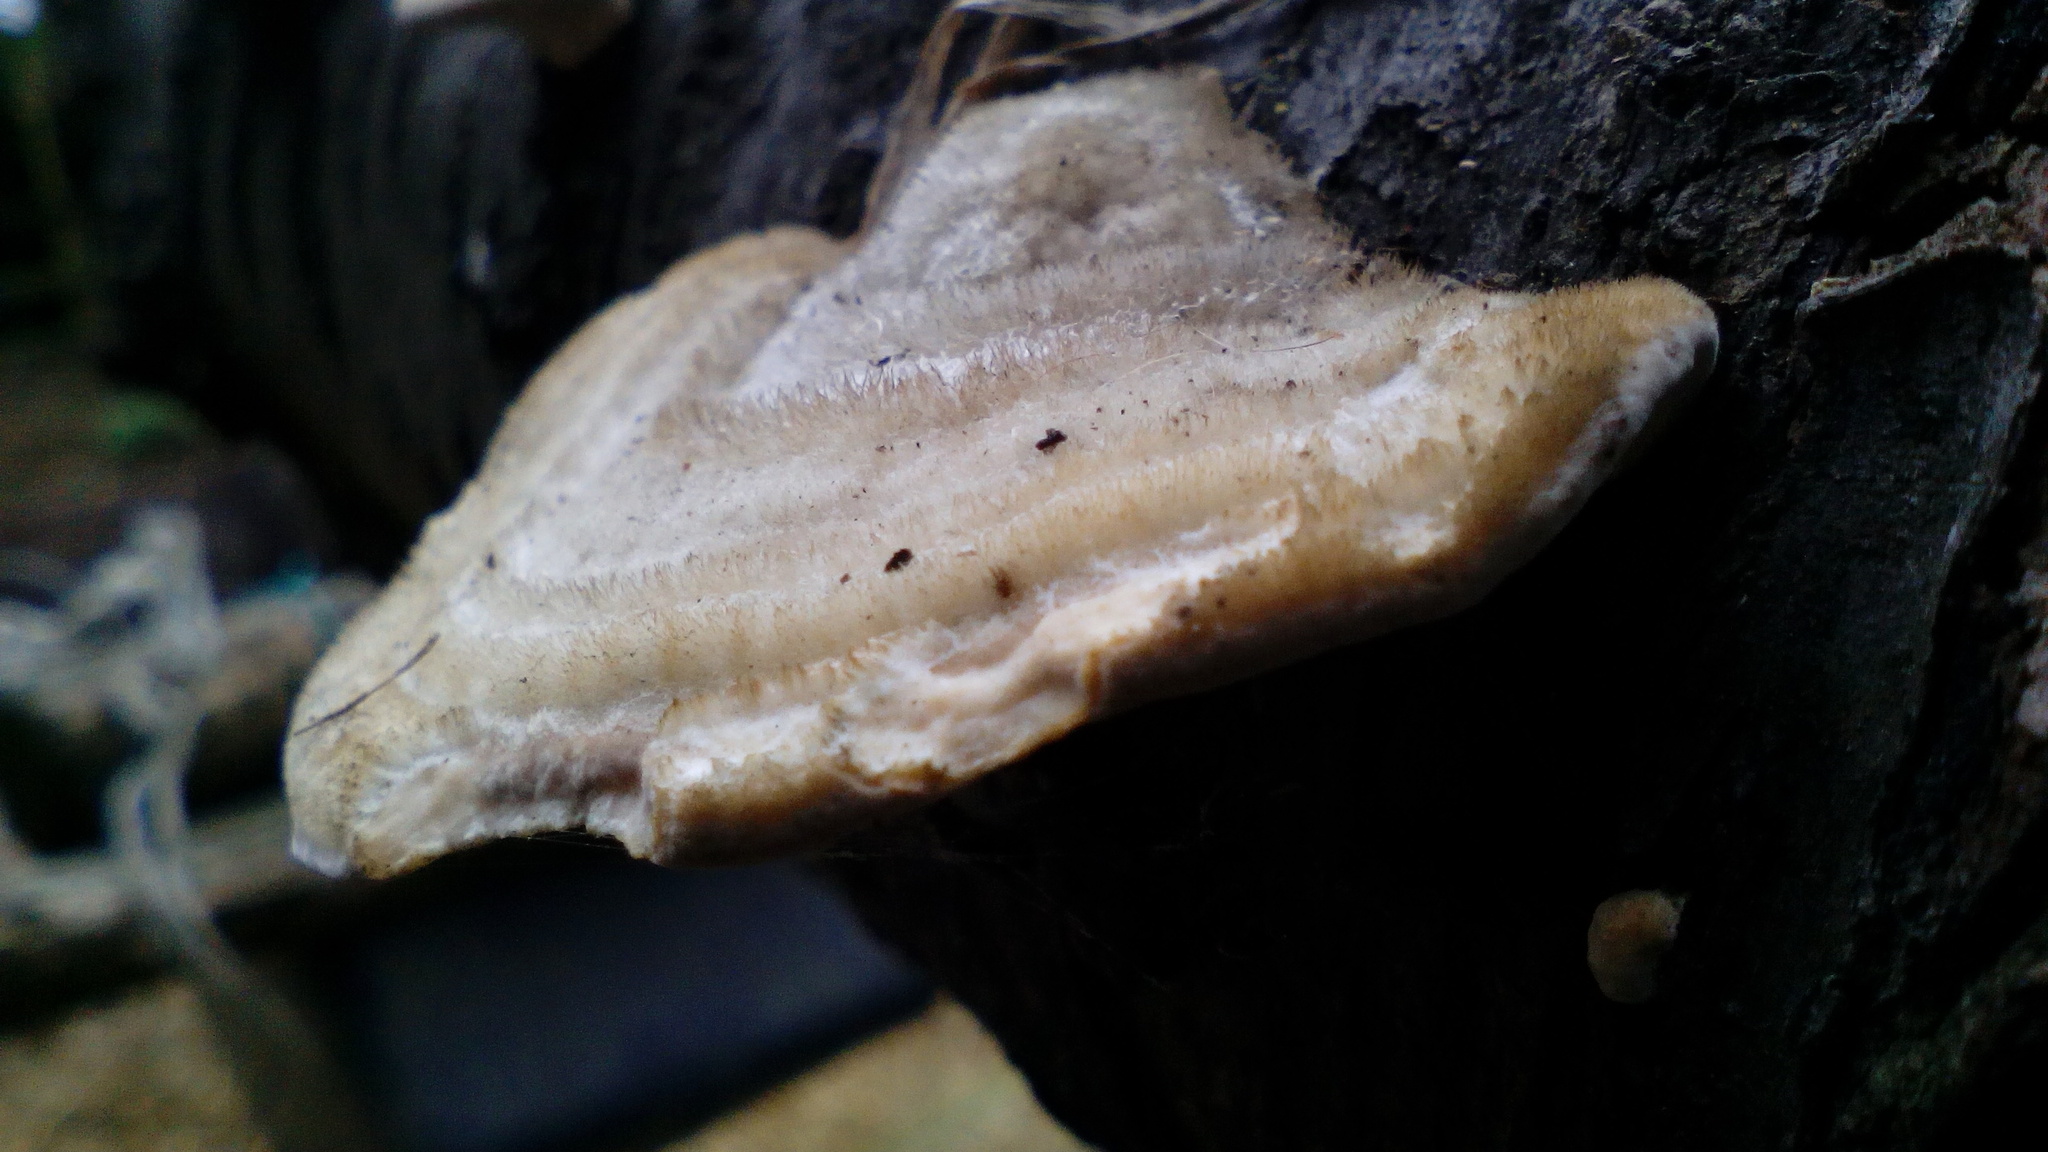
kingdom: Fungi
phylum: Basidiomycota
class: Agaricomycetes
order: Polyporales
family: Polyporaceae
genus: Trametes
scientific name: Trametes pubescens
